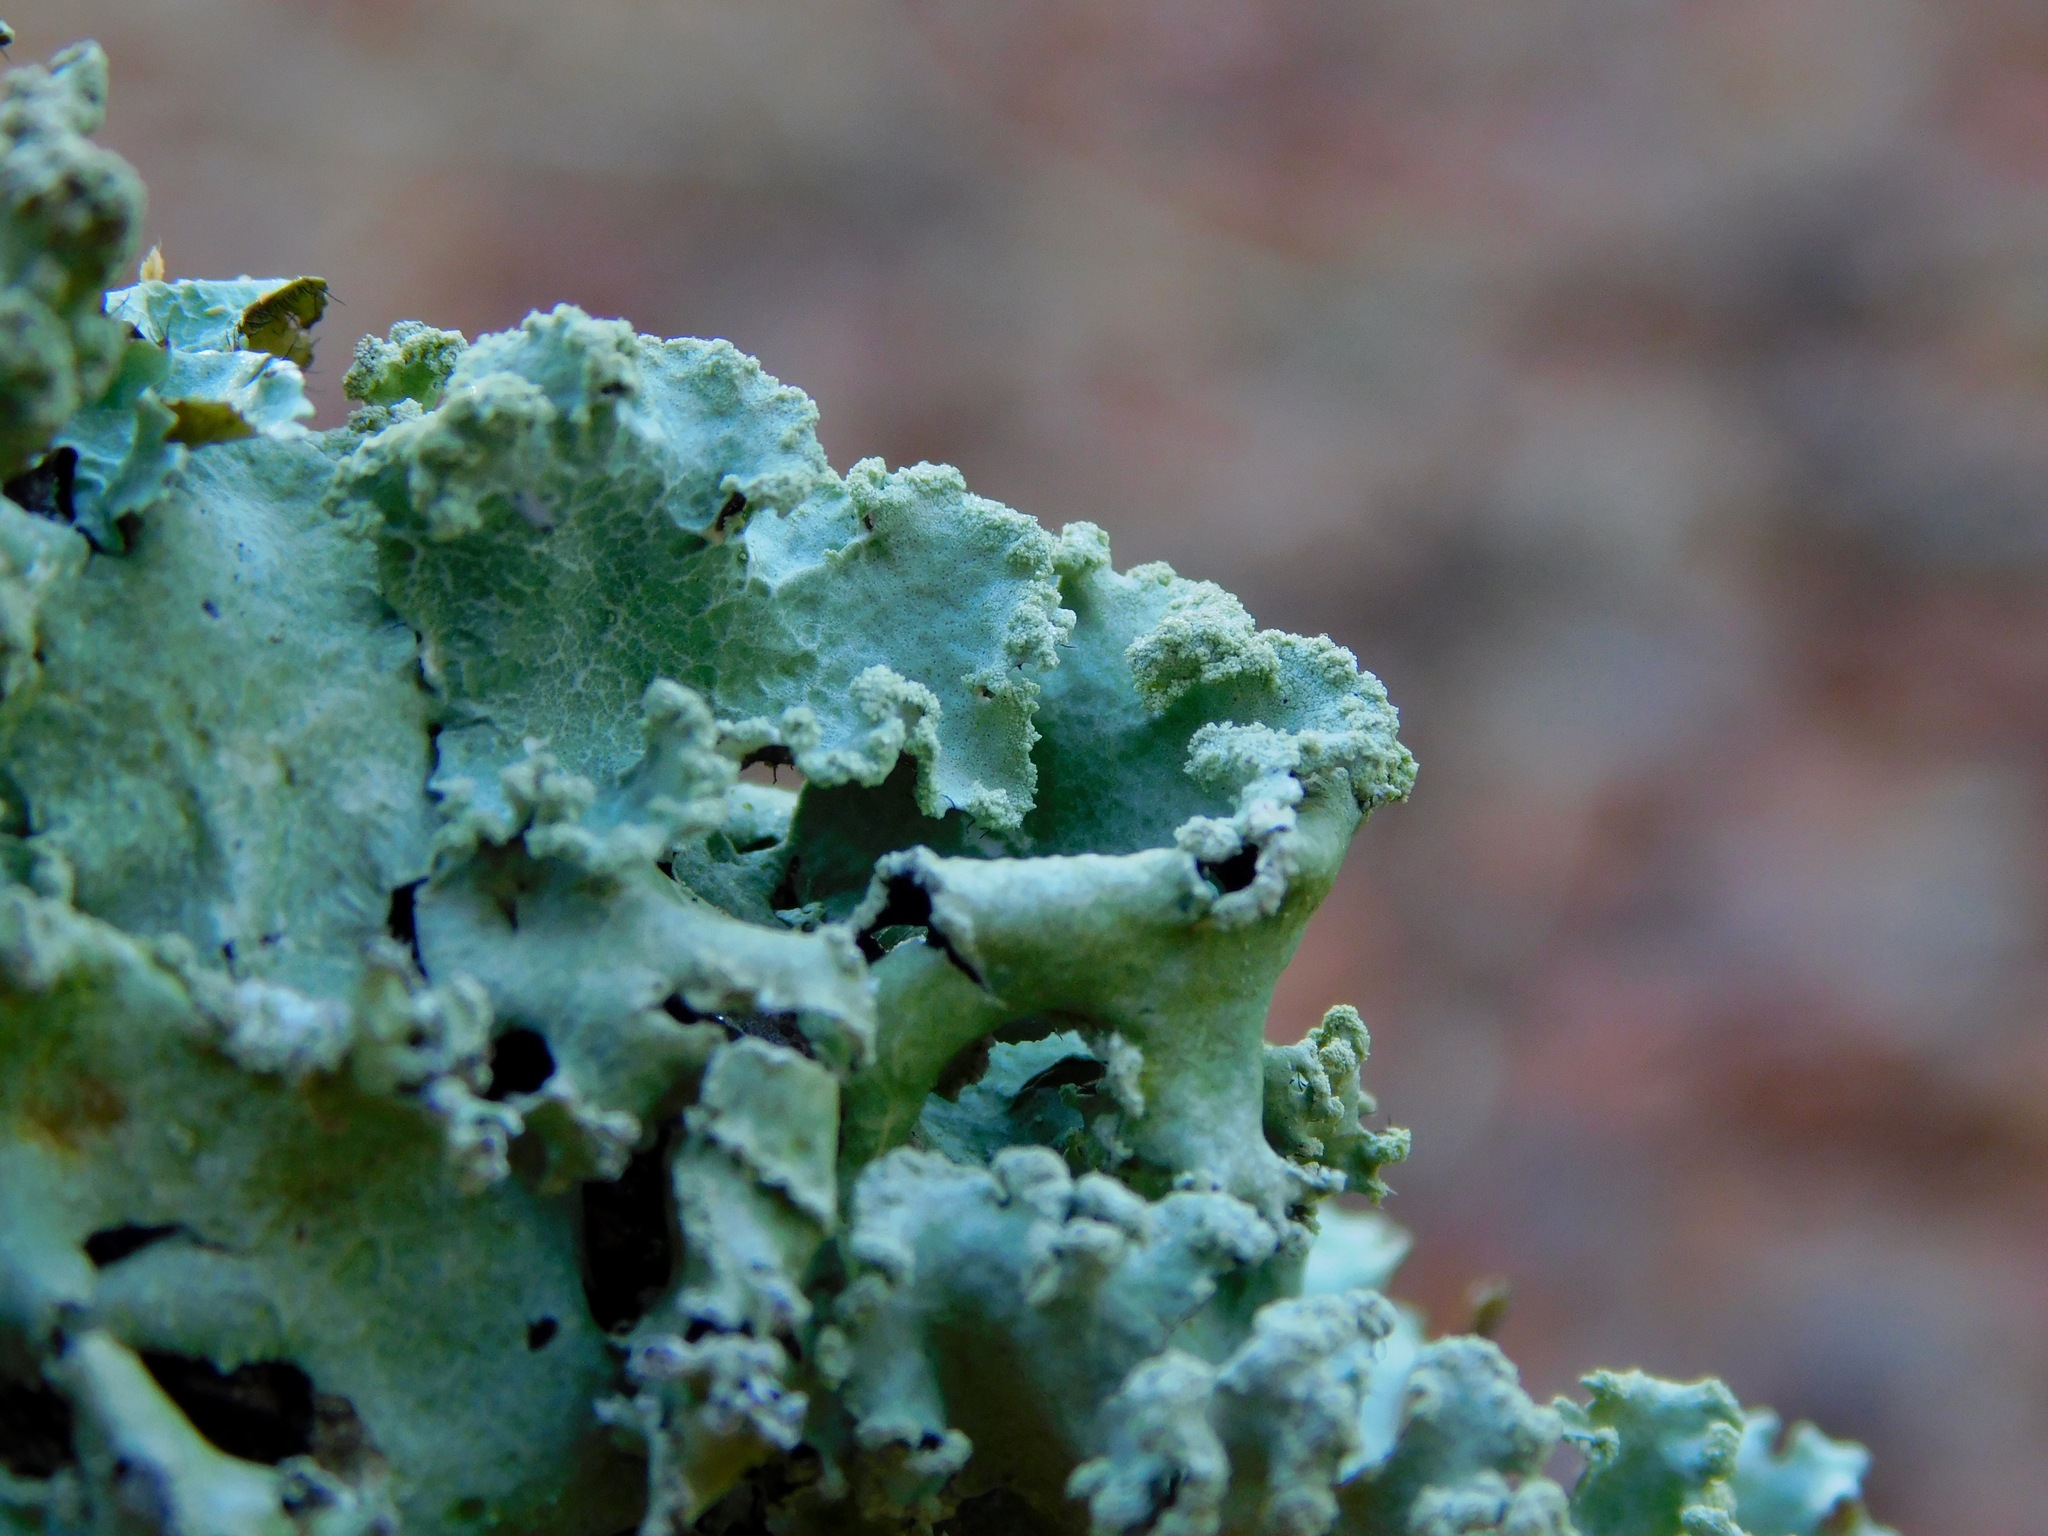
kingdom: Fungi
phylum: Ascomycota
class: Lecanoromycetes
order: Lecanorales
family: Parmeliaceae
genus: Parmotrema
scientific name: Parmotrema simulans
